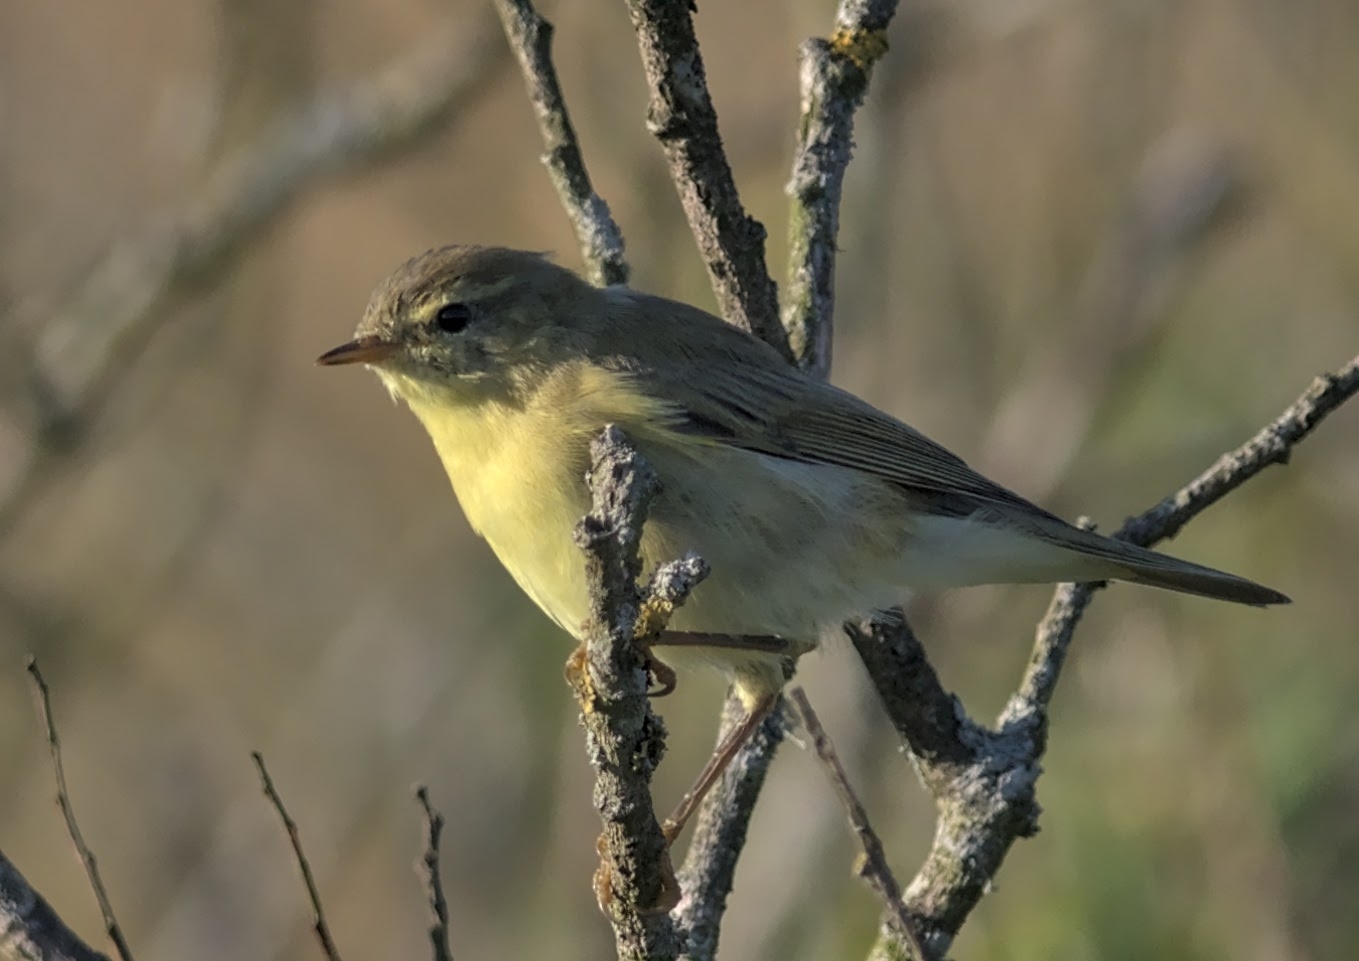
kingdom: Animalia
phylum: Chordata
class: Aves
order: Passeriformes
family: Phylloscopidae
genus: Phylloscopus
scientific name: Phylloscopus trochilus
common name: Willow warbler
